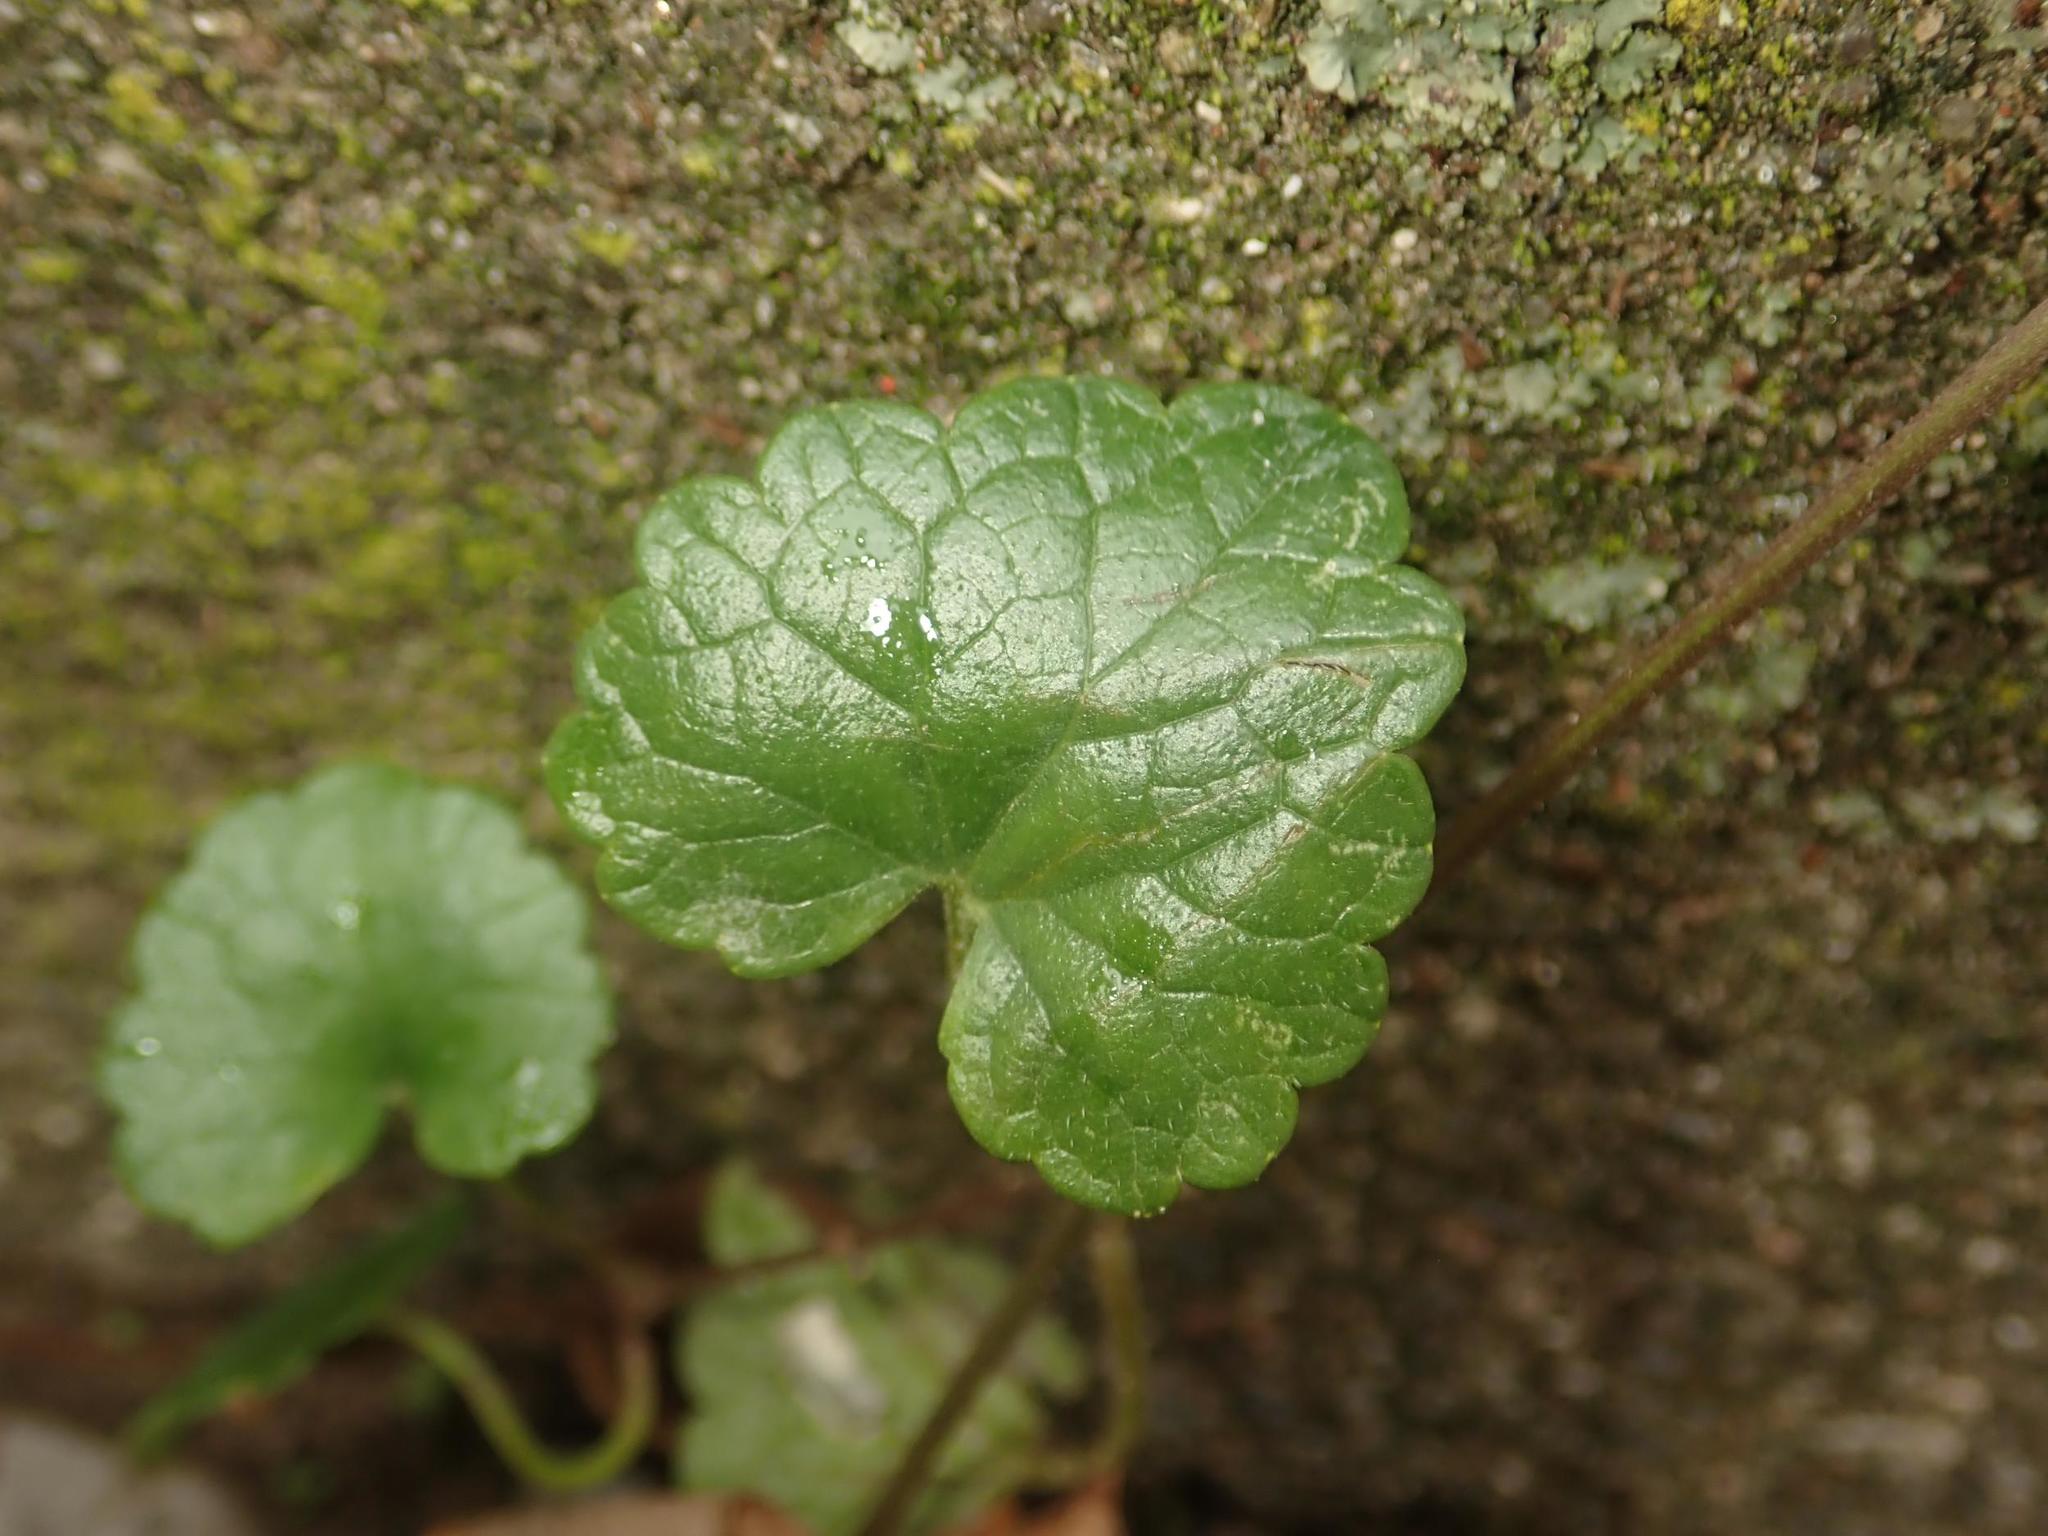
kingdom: Plantae
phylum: Tracheophyta
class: Magnoliopsida
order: Lamiales
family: Lamiaceae
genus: Glechoma
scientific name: Glechoma hederacea
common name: Ground ivy
